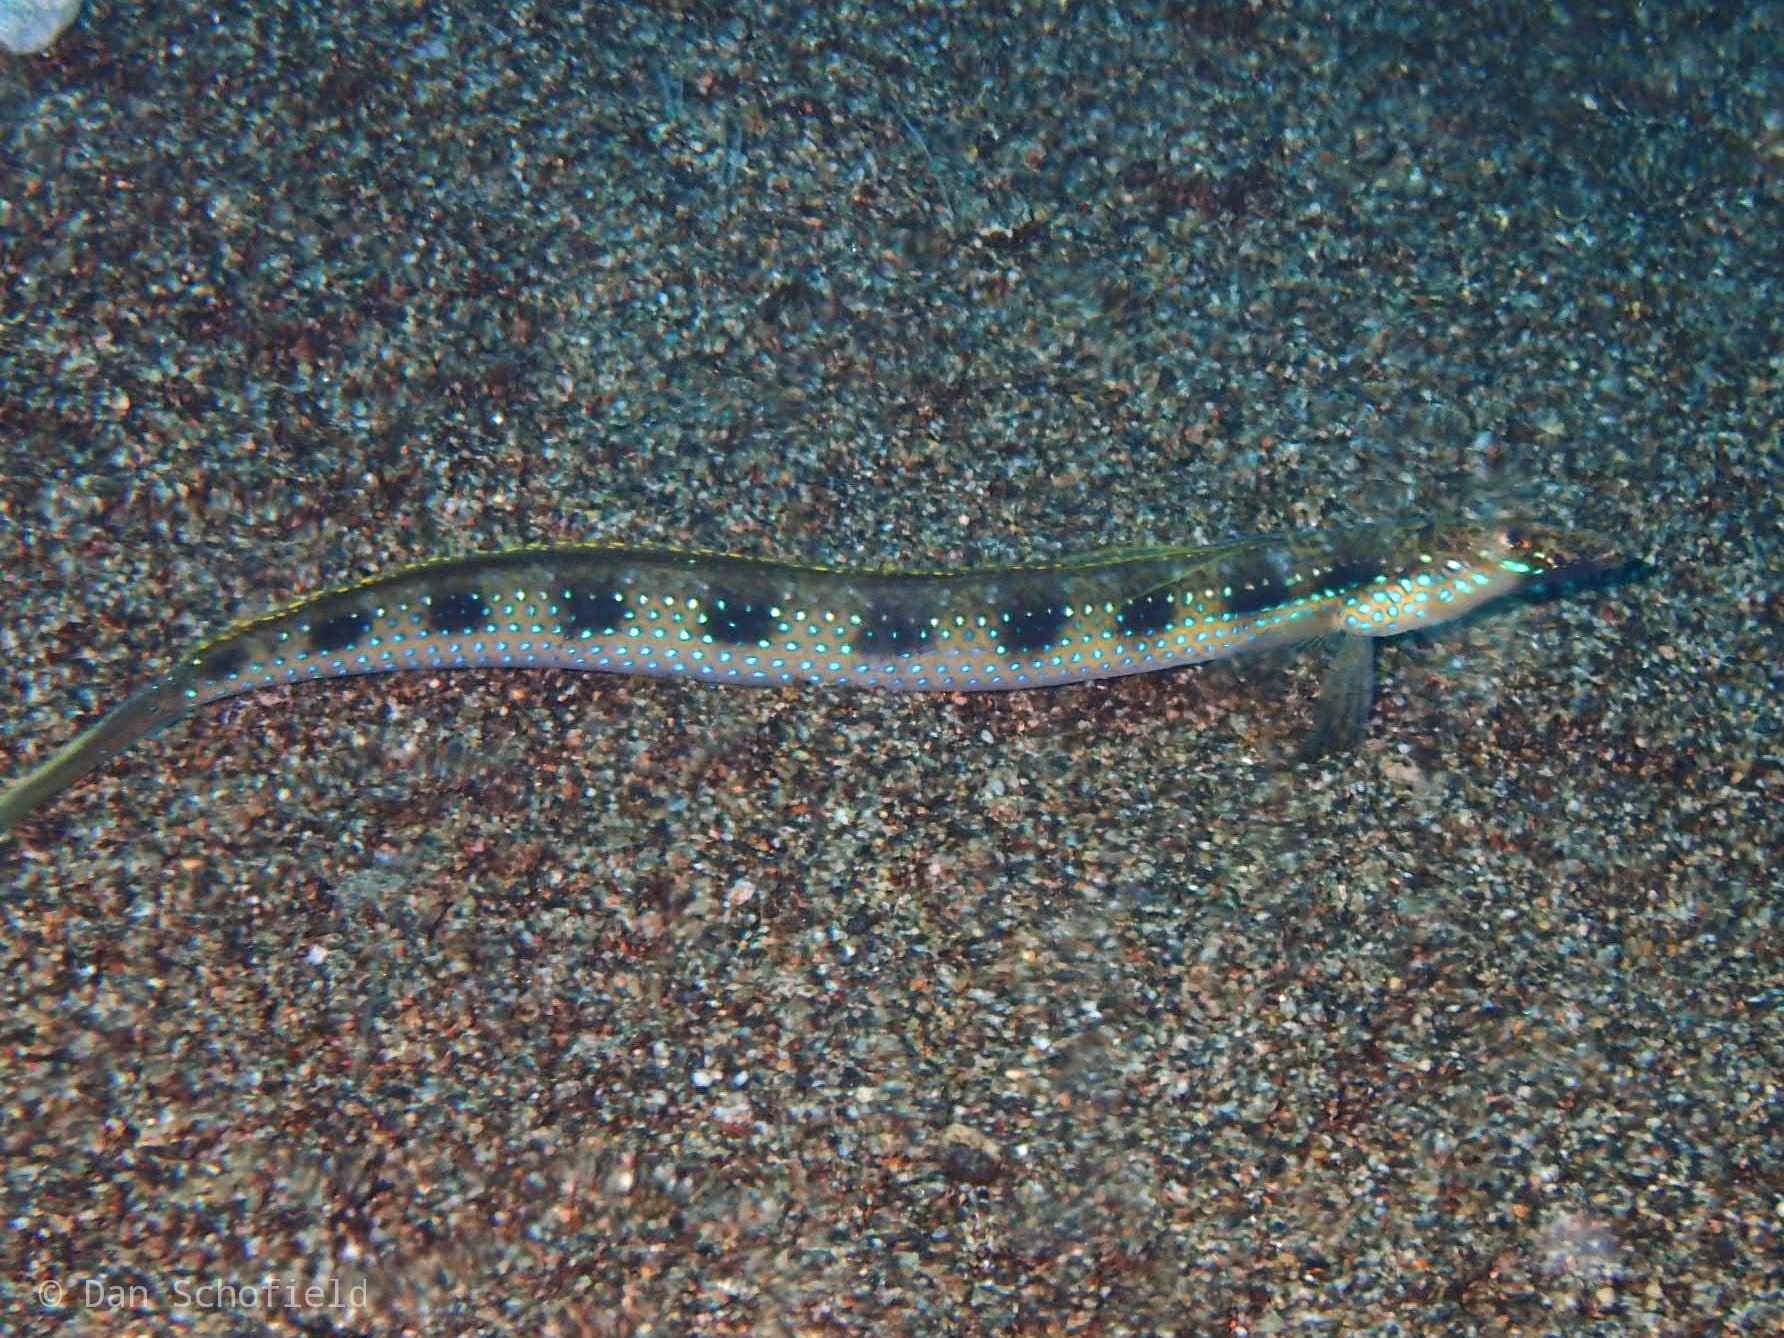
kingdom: Animalia
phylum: Chordata
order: Perciformes
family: Trichonotidae
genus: Trichonotus
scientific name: Trichonotus setiger
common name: Spotted sand-diver
